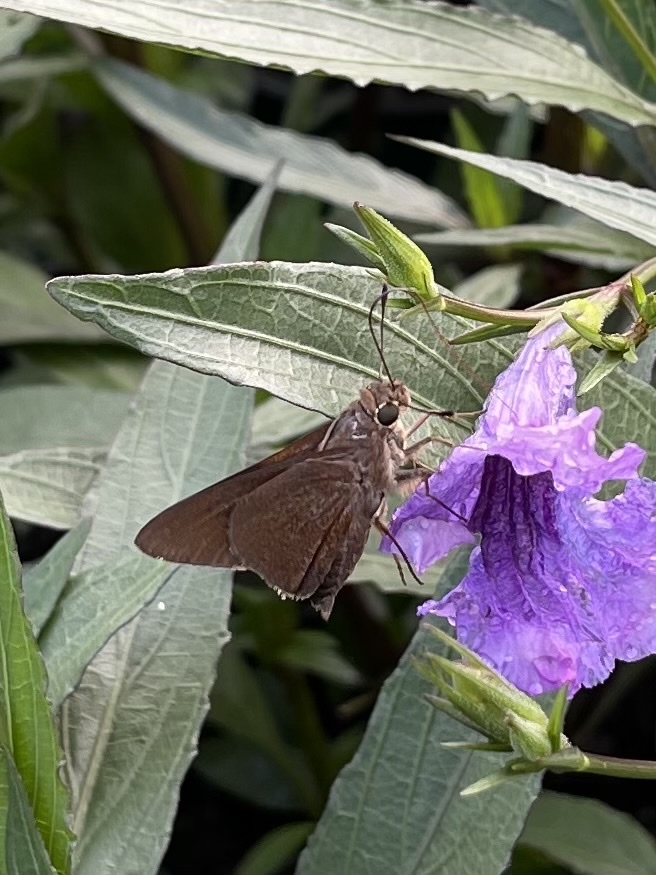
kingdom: Animalia
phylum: Arthropoda
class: Insecta
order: Lepidoptera
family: Hesperiidae
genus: Asbolis
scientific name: Asbolis capucinus
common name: Monk skipper
